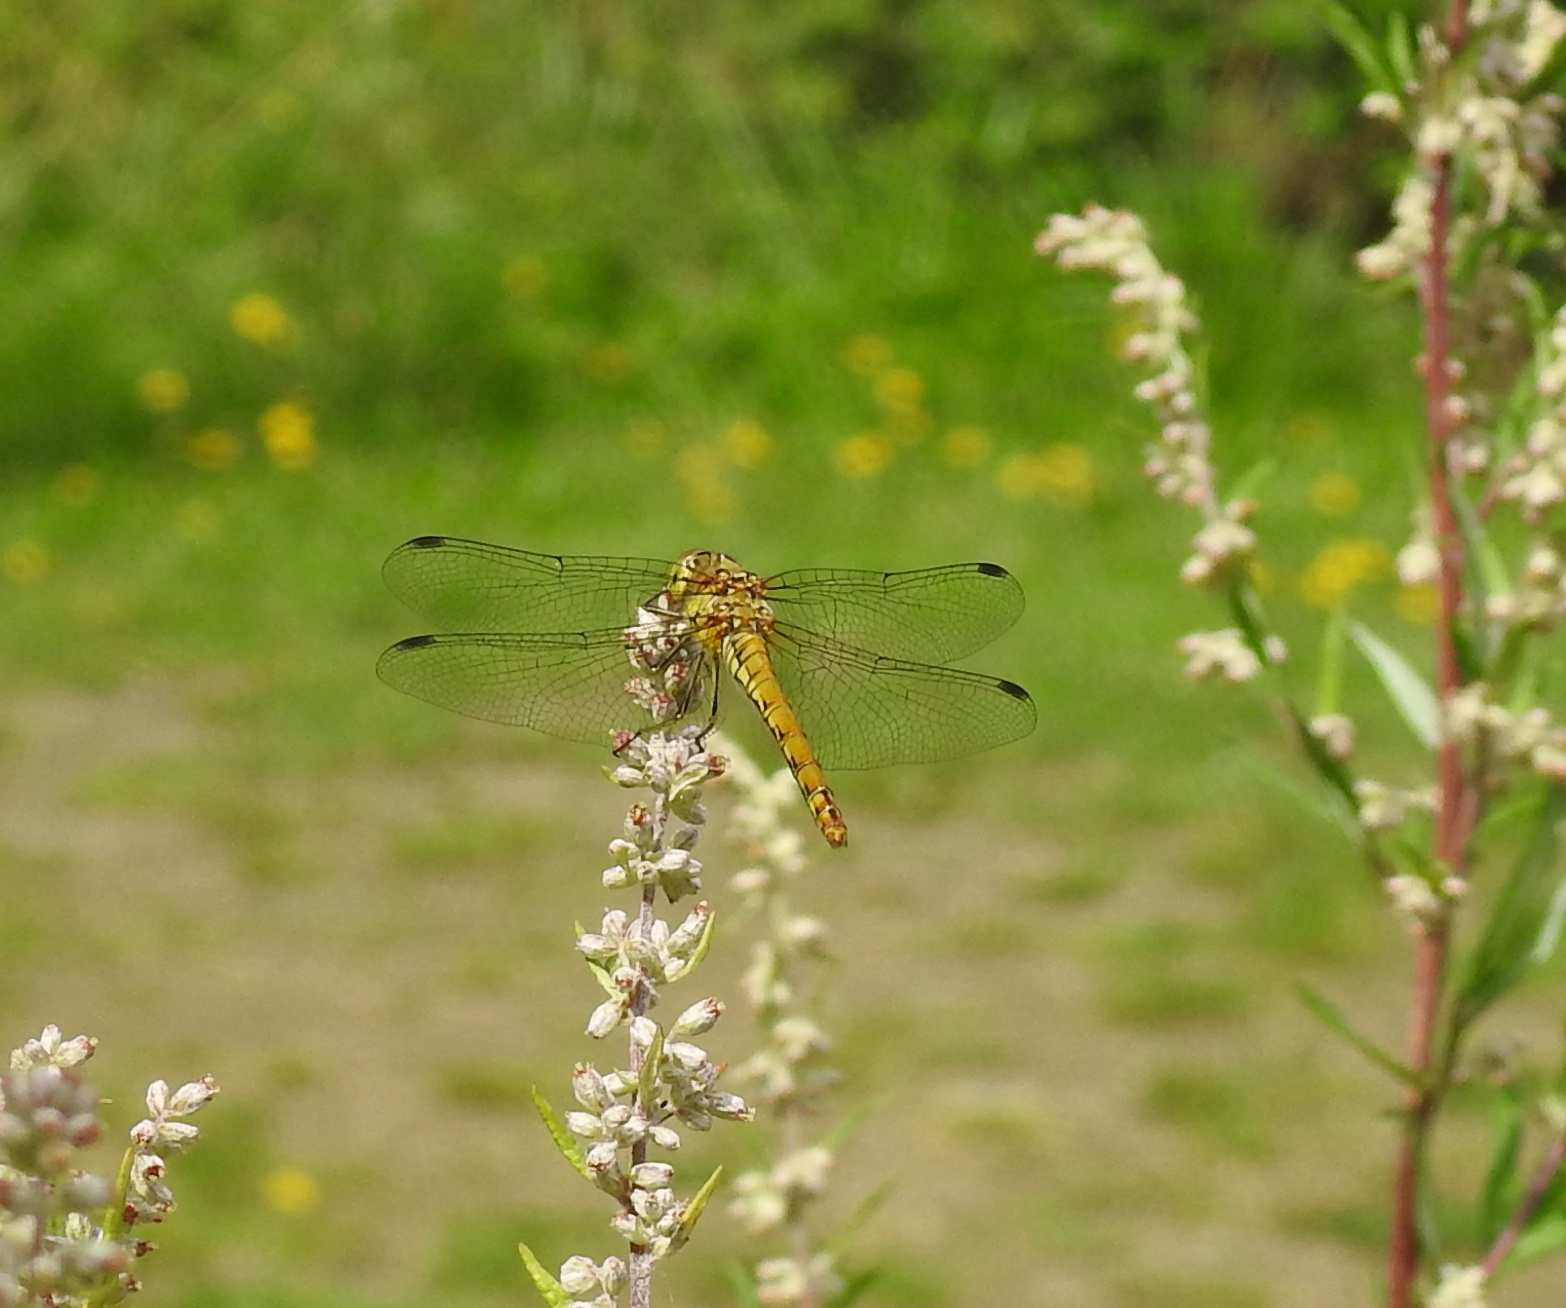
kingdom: Animalia
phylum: Arthropoda
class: Insecta
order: Odonata
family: Libellulidae
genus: Sympetrum
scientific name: Sympetrum striolatum
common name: Common darter
